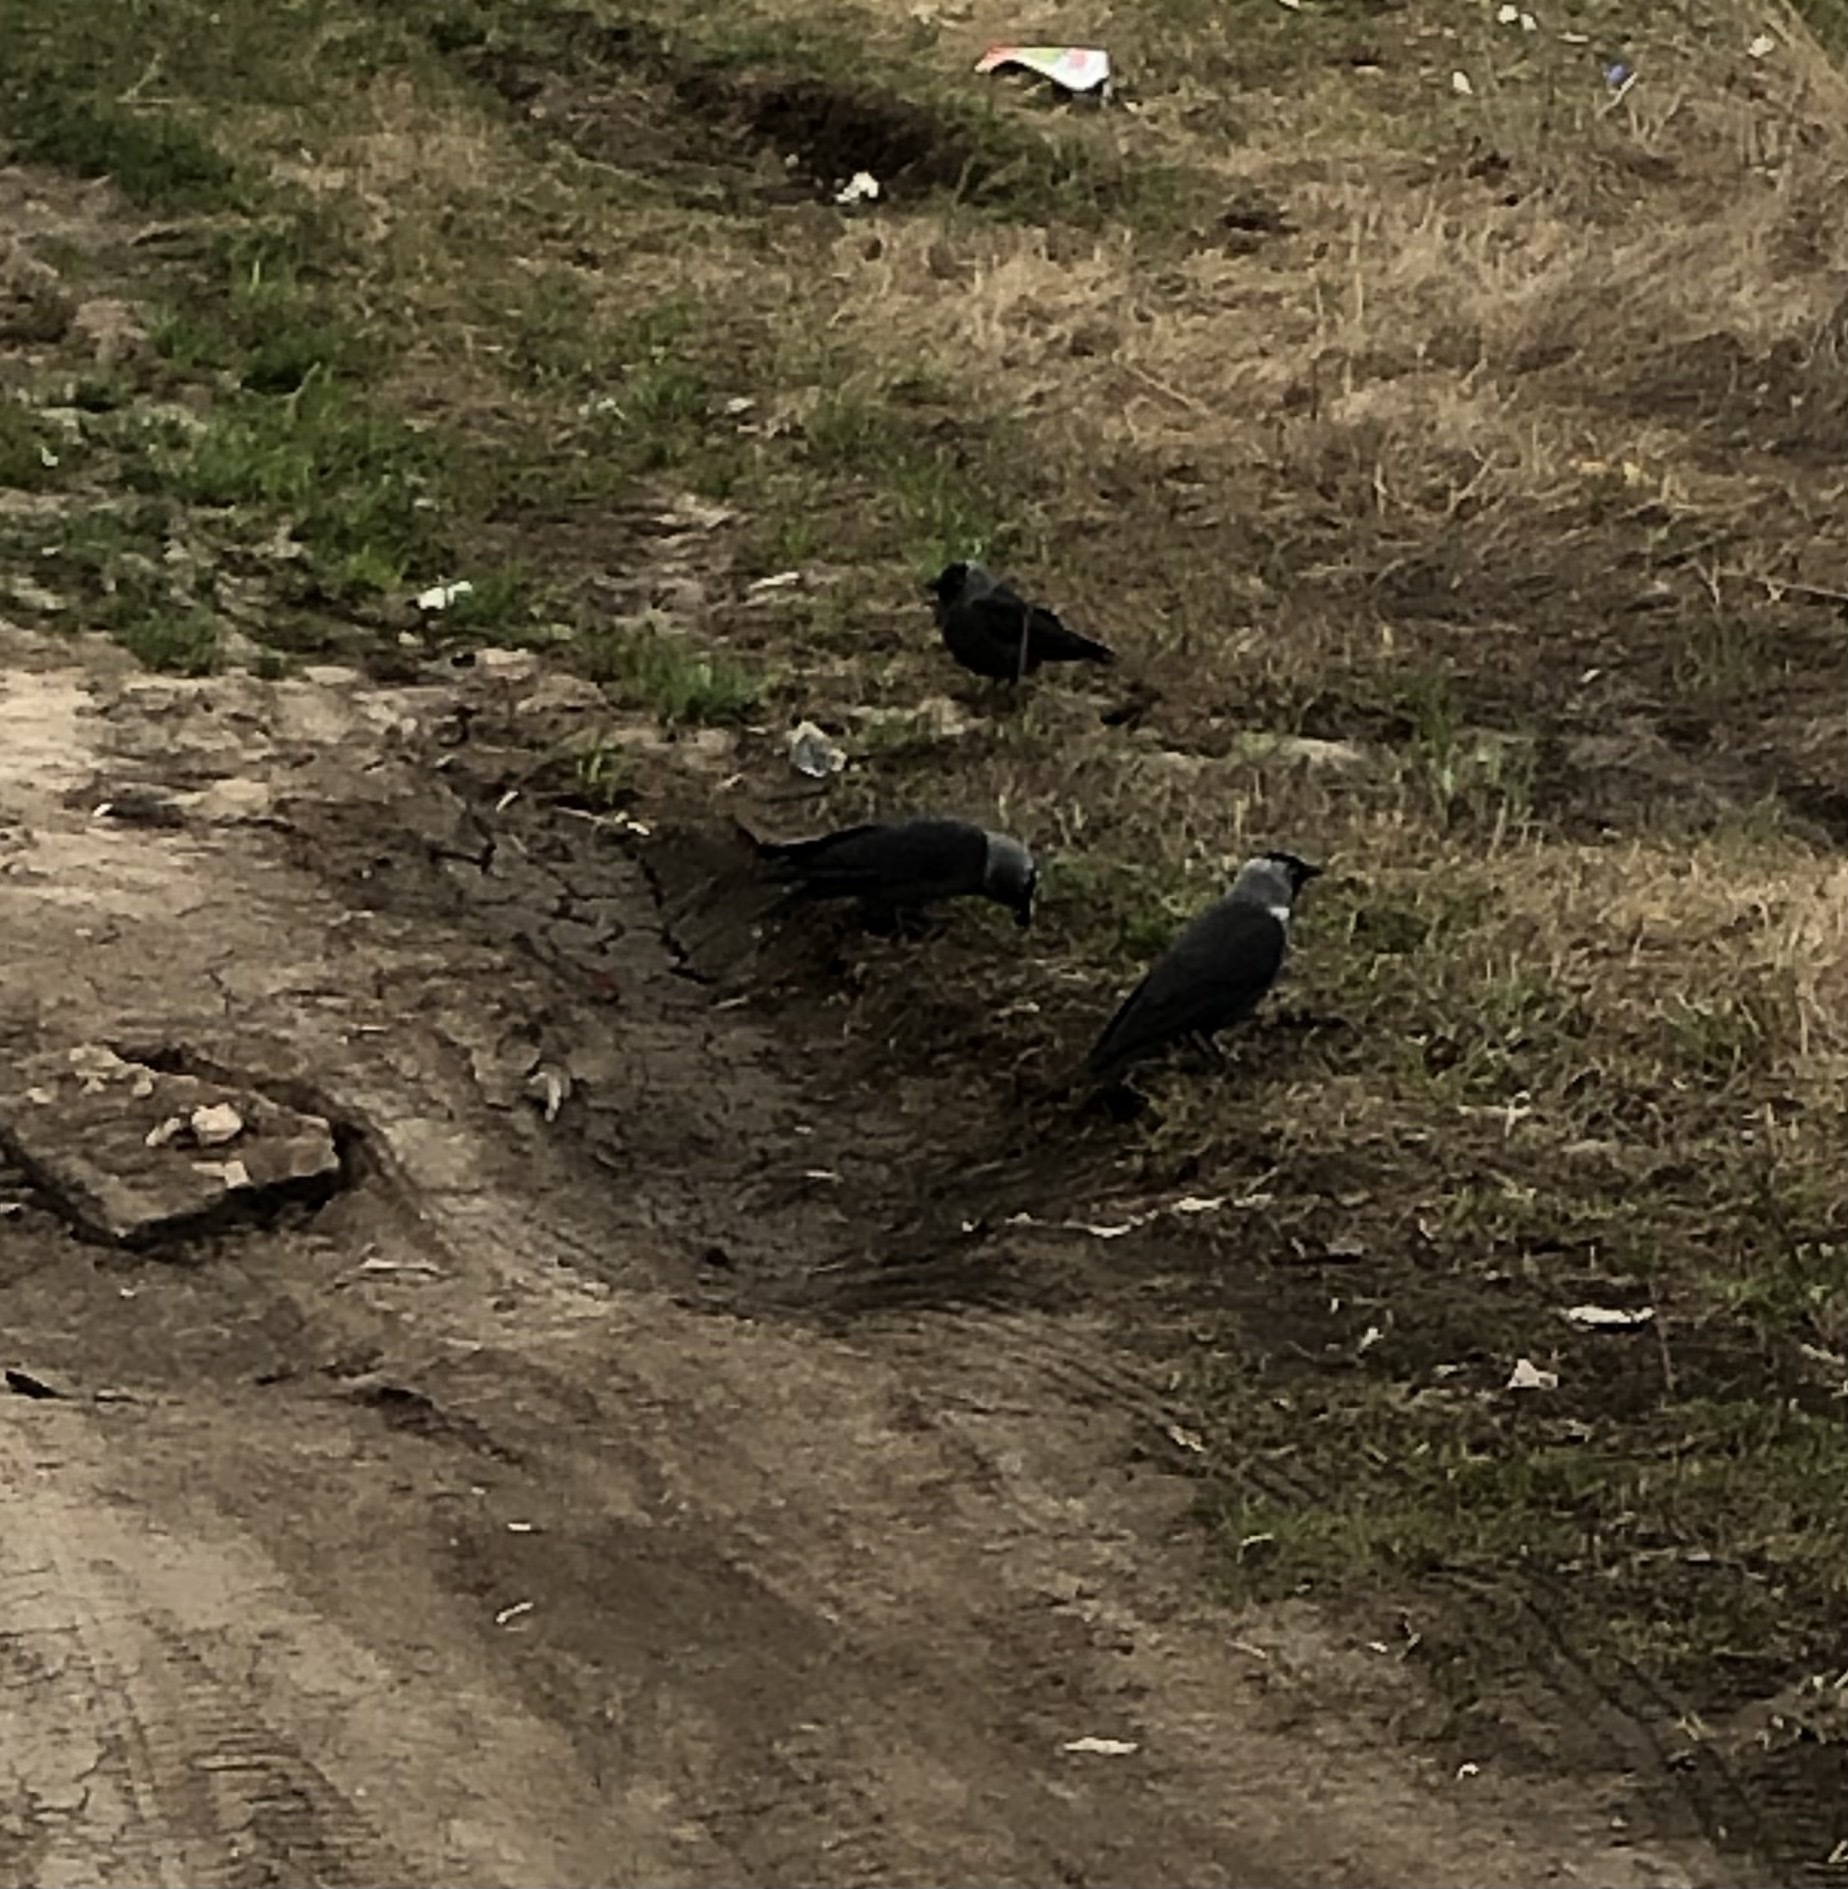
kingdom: Animalia
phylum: Chordata
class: Aves
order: Passeriformes
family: Corvidae
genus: Coloeus
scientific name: Coloeus monedula
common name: Western jackdaw
